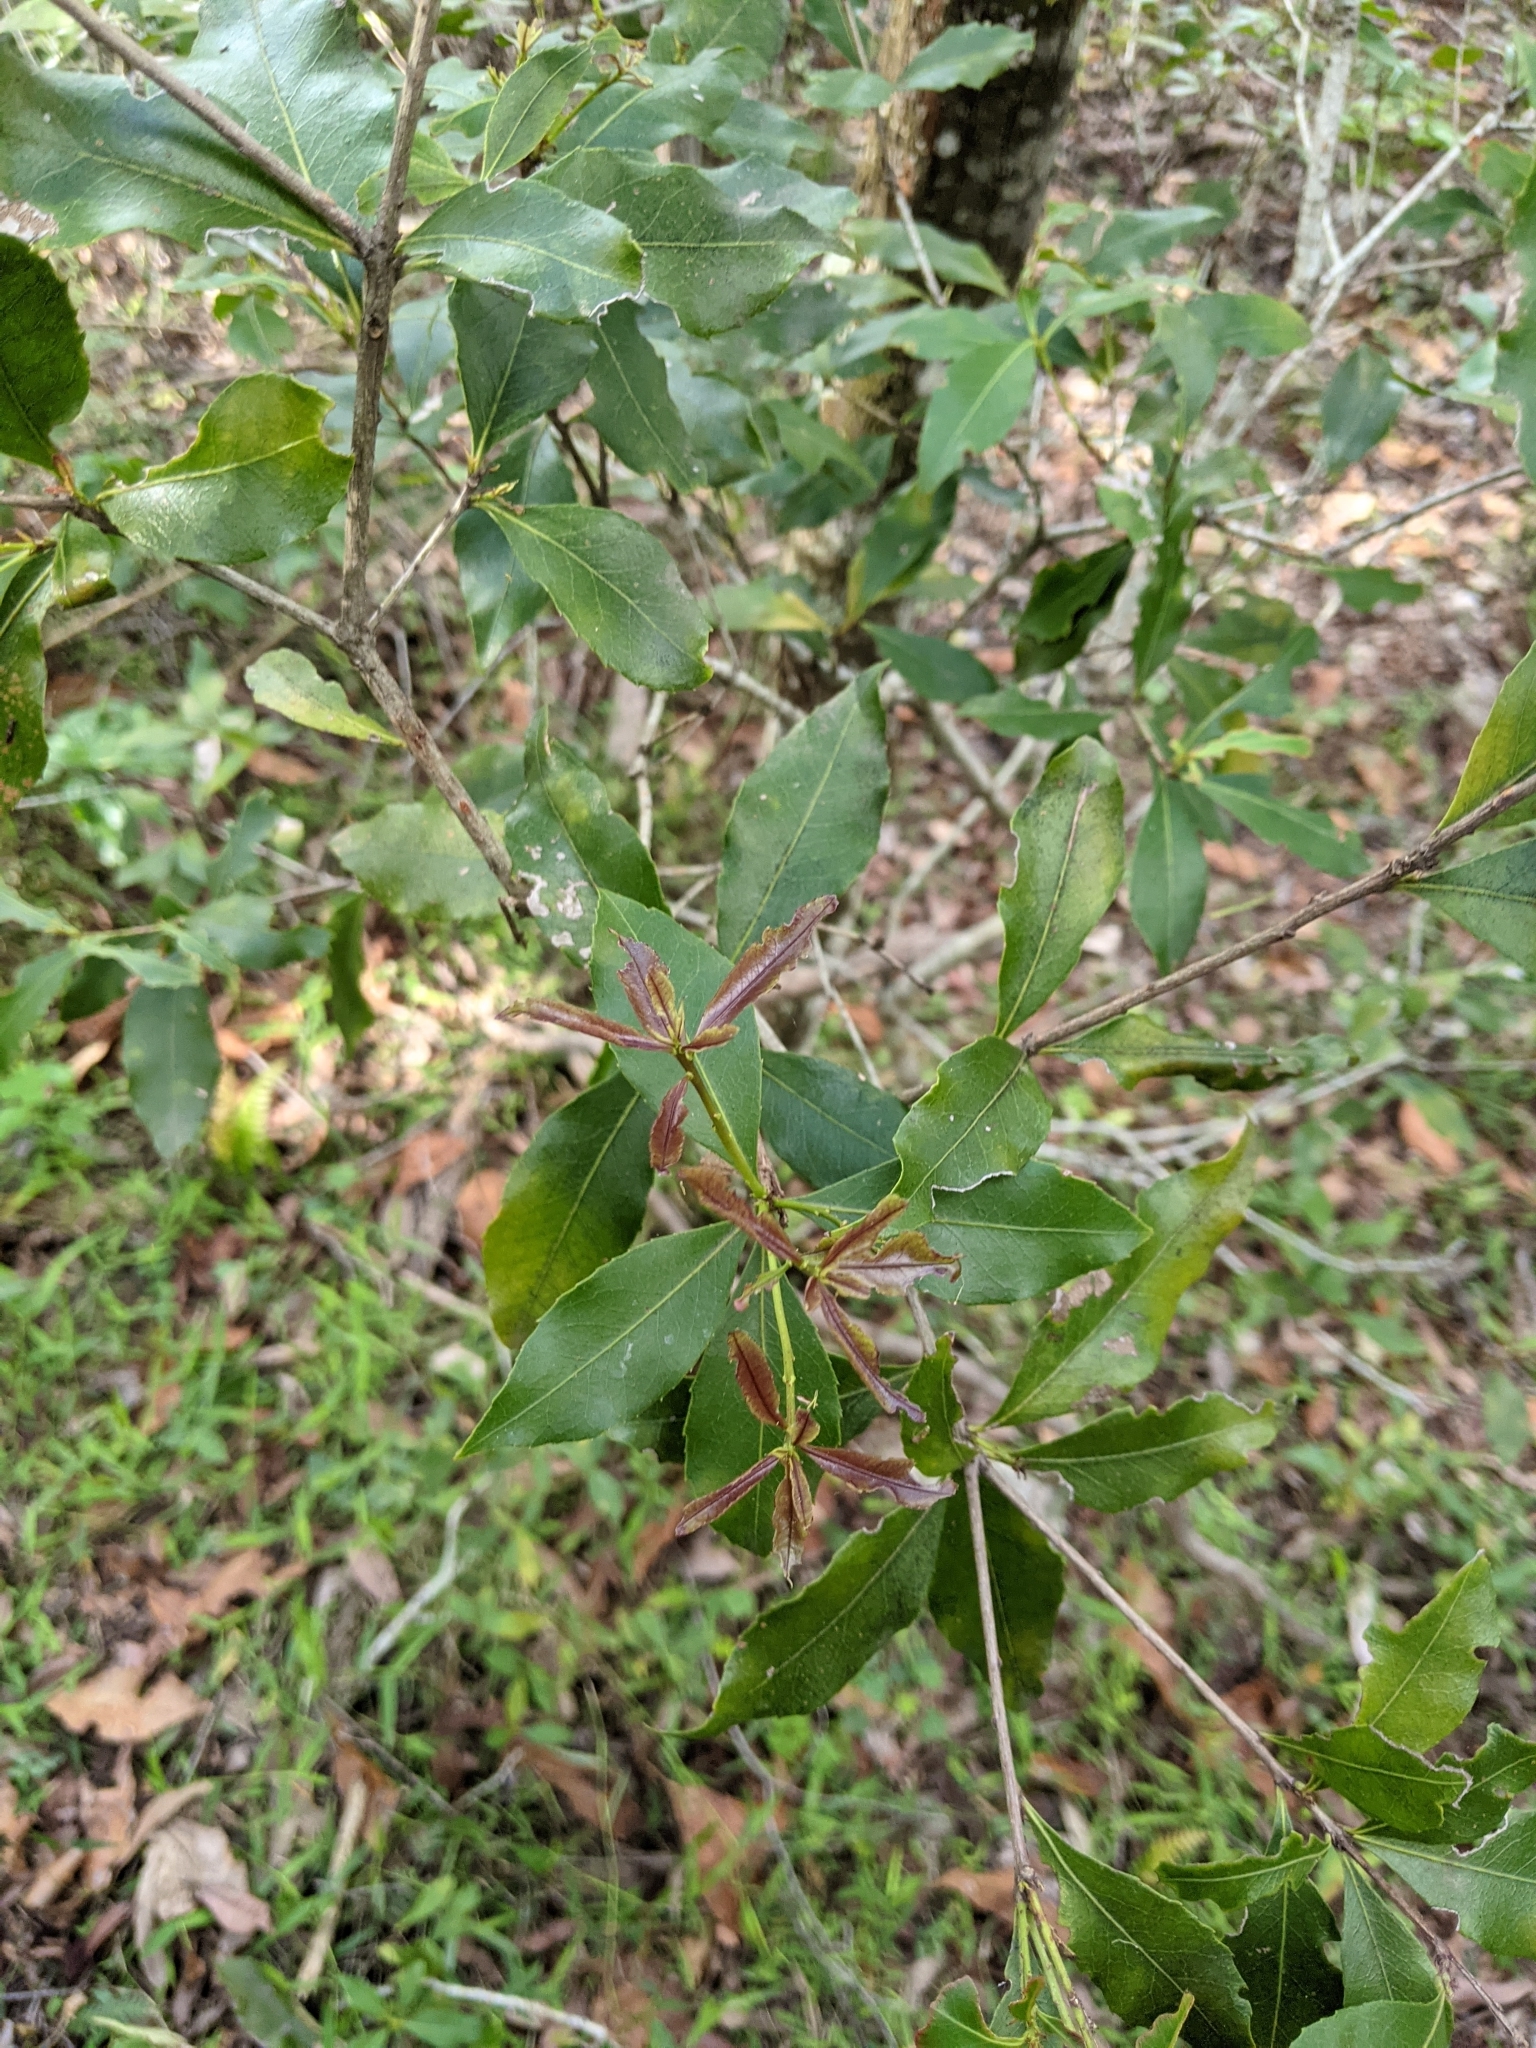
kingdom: Plantae
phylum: Tracheophyta
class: Magnoliopsida
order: Celastrales
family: Celastraceae
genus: Denhamia
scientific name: Denhamia celastroides
